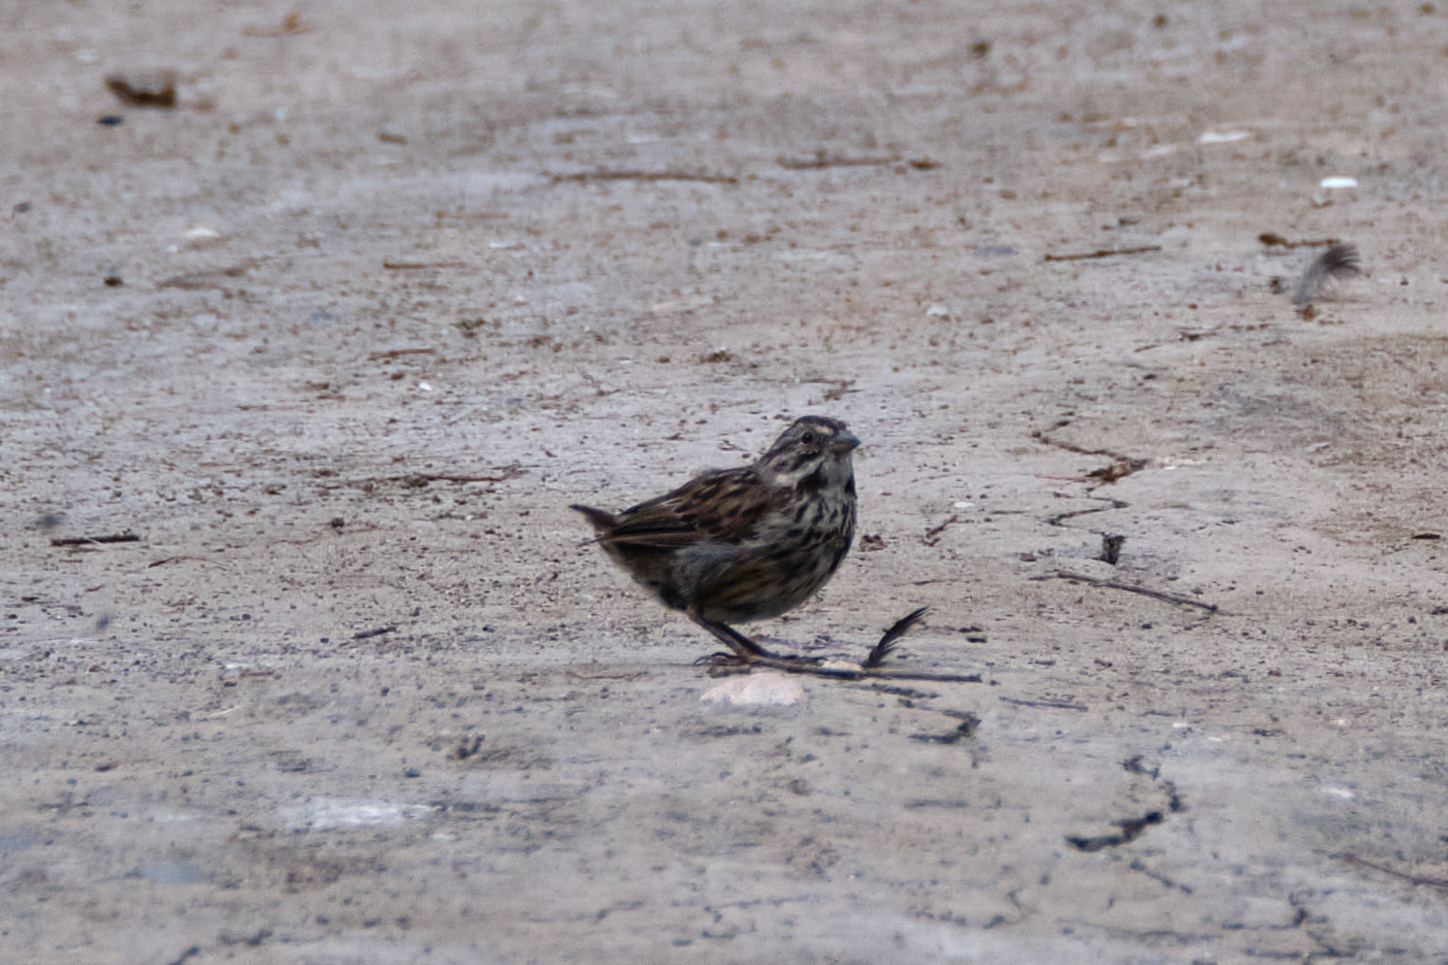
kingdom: Animalia
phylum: Chordata
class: Aves
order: Passeriformes
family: Passerellidae
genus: Melospiza
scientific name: Melospiza melodia
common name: Song sparrow
